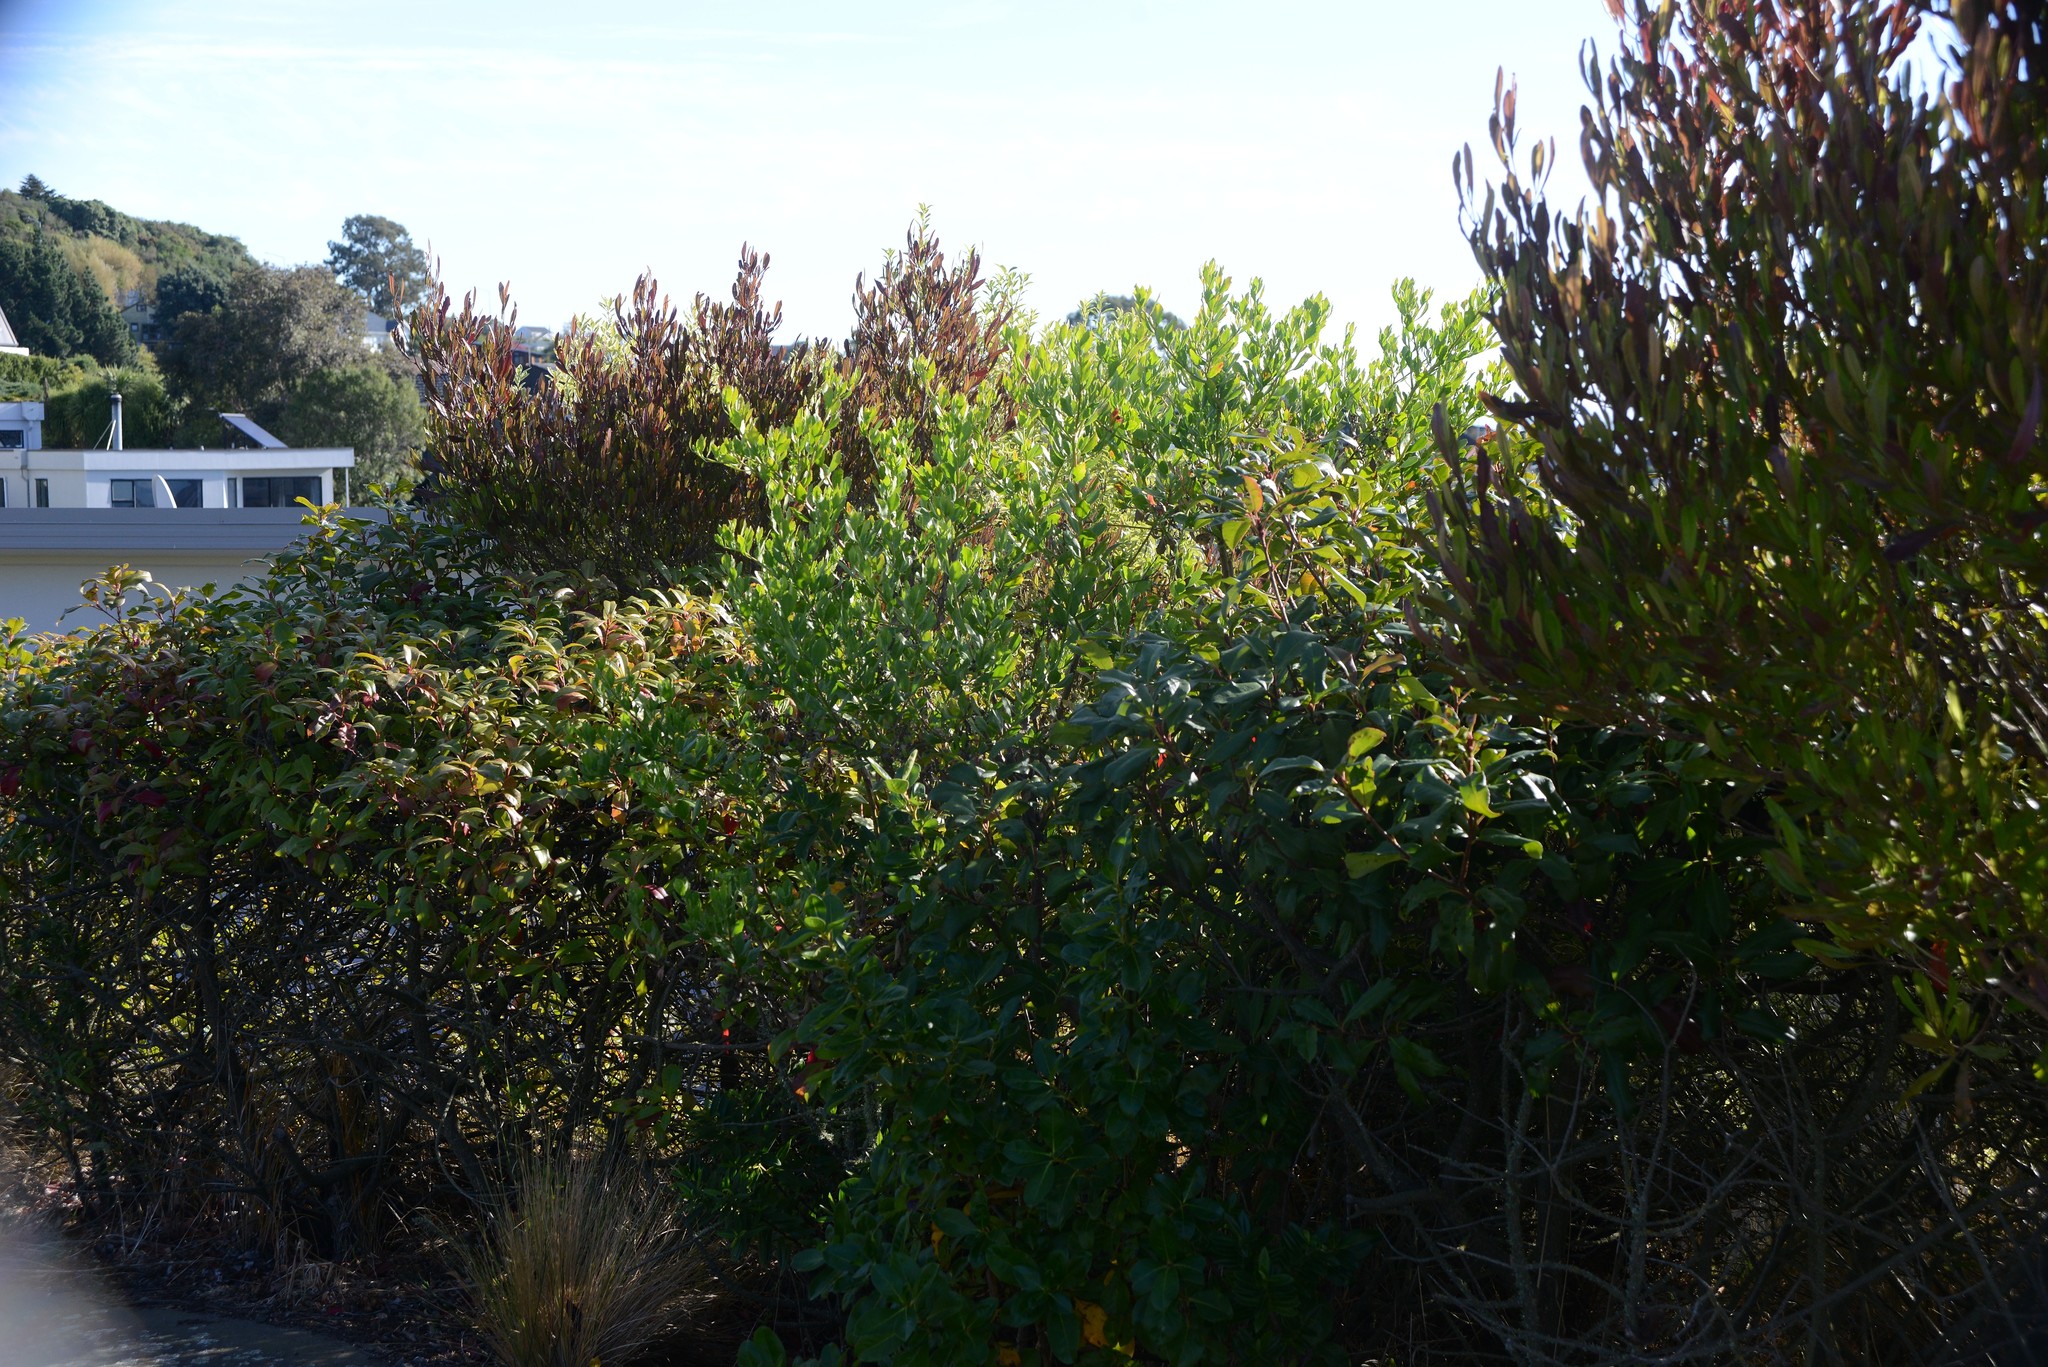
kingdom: Plantae
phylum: Tracheophyta
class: Magnoliopsida
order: Asterales
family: Asteraceae
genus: Osteospermum
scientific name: Osteospermum moniliferum
